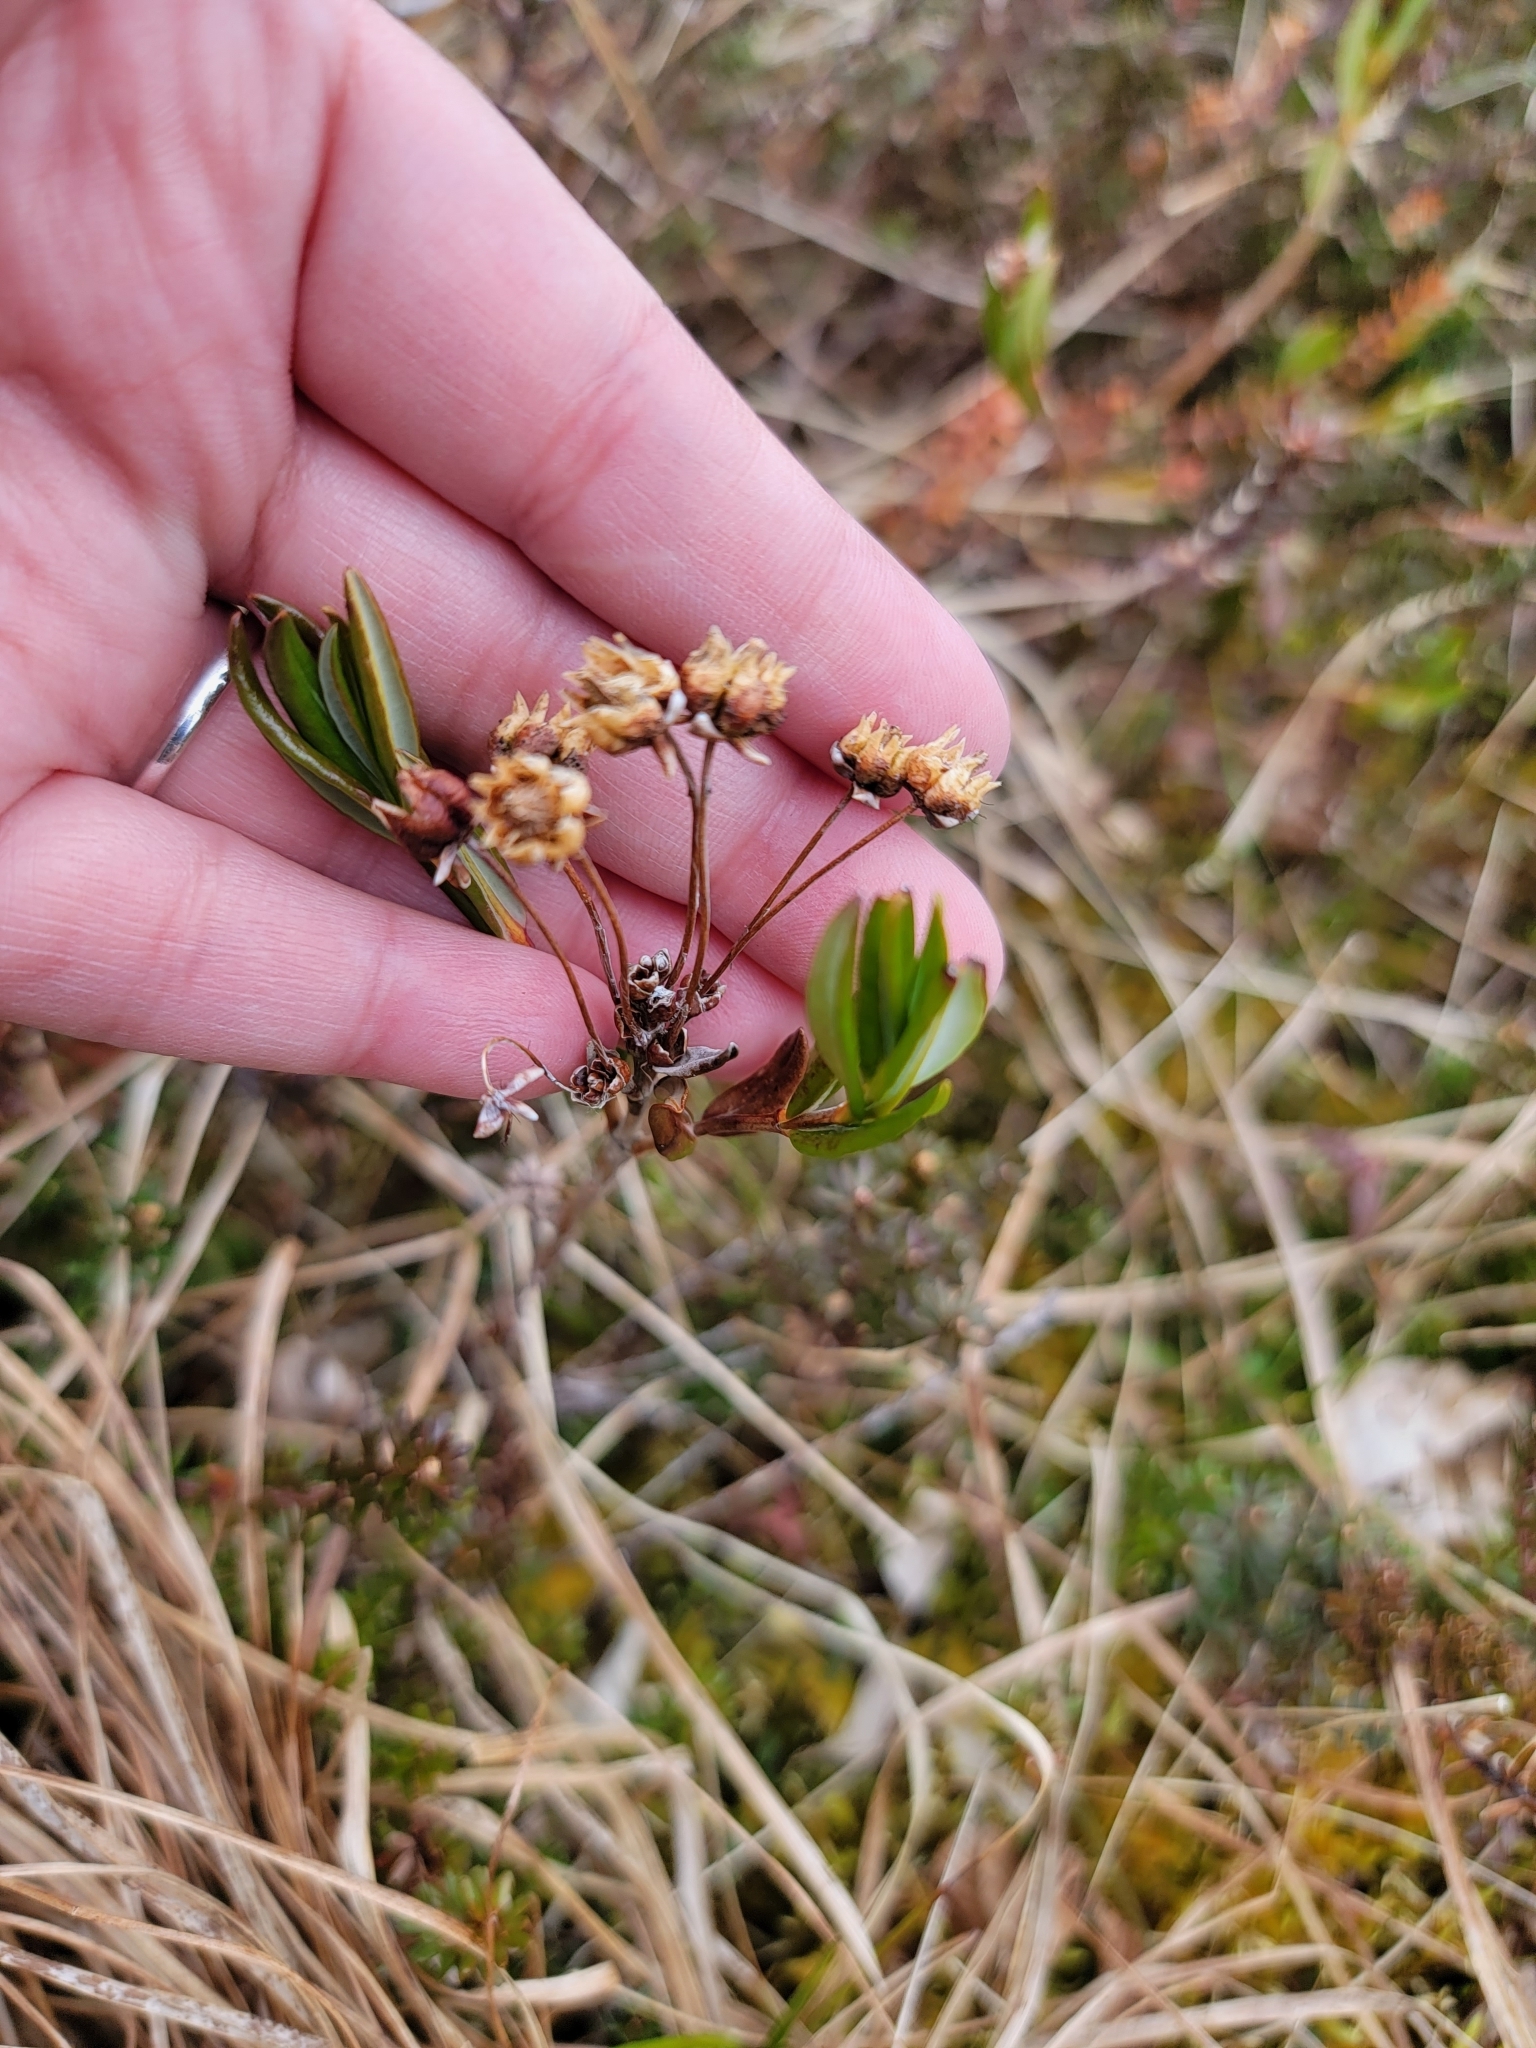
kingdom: Plantae
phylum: Tracheophyta
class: Magnoliopsida
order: Ericales
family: Ericaceae
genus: Kalmia
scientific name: Kalmia microphylla
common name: Alpine bog laurel
